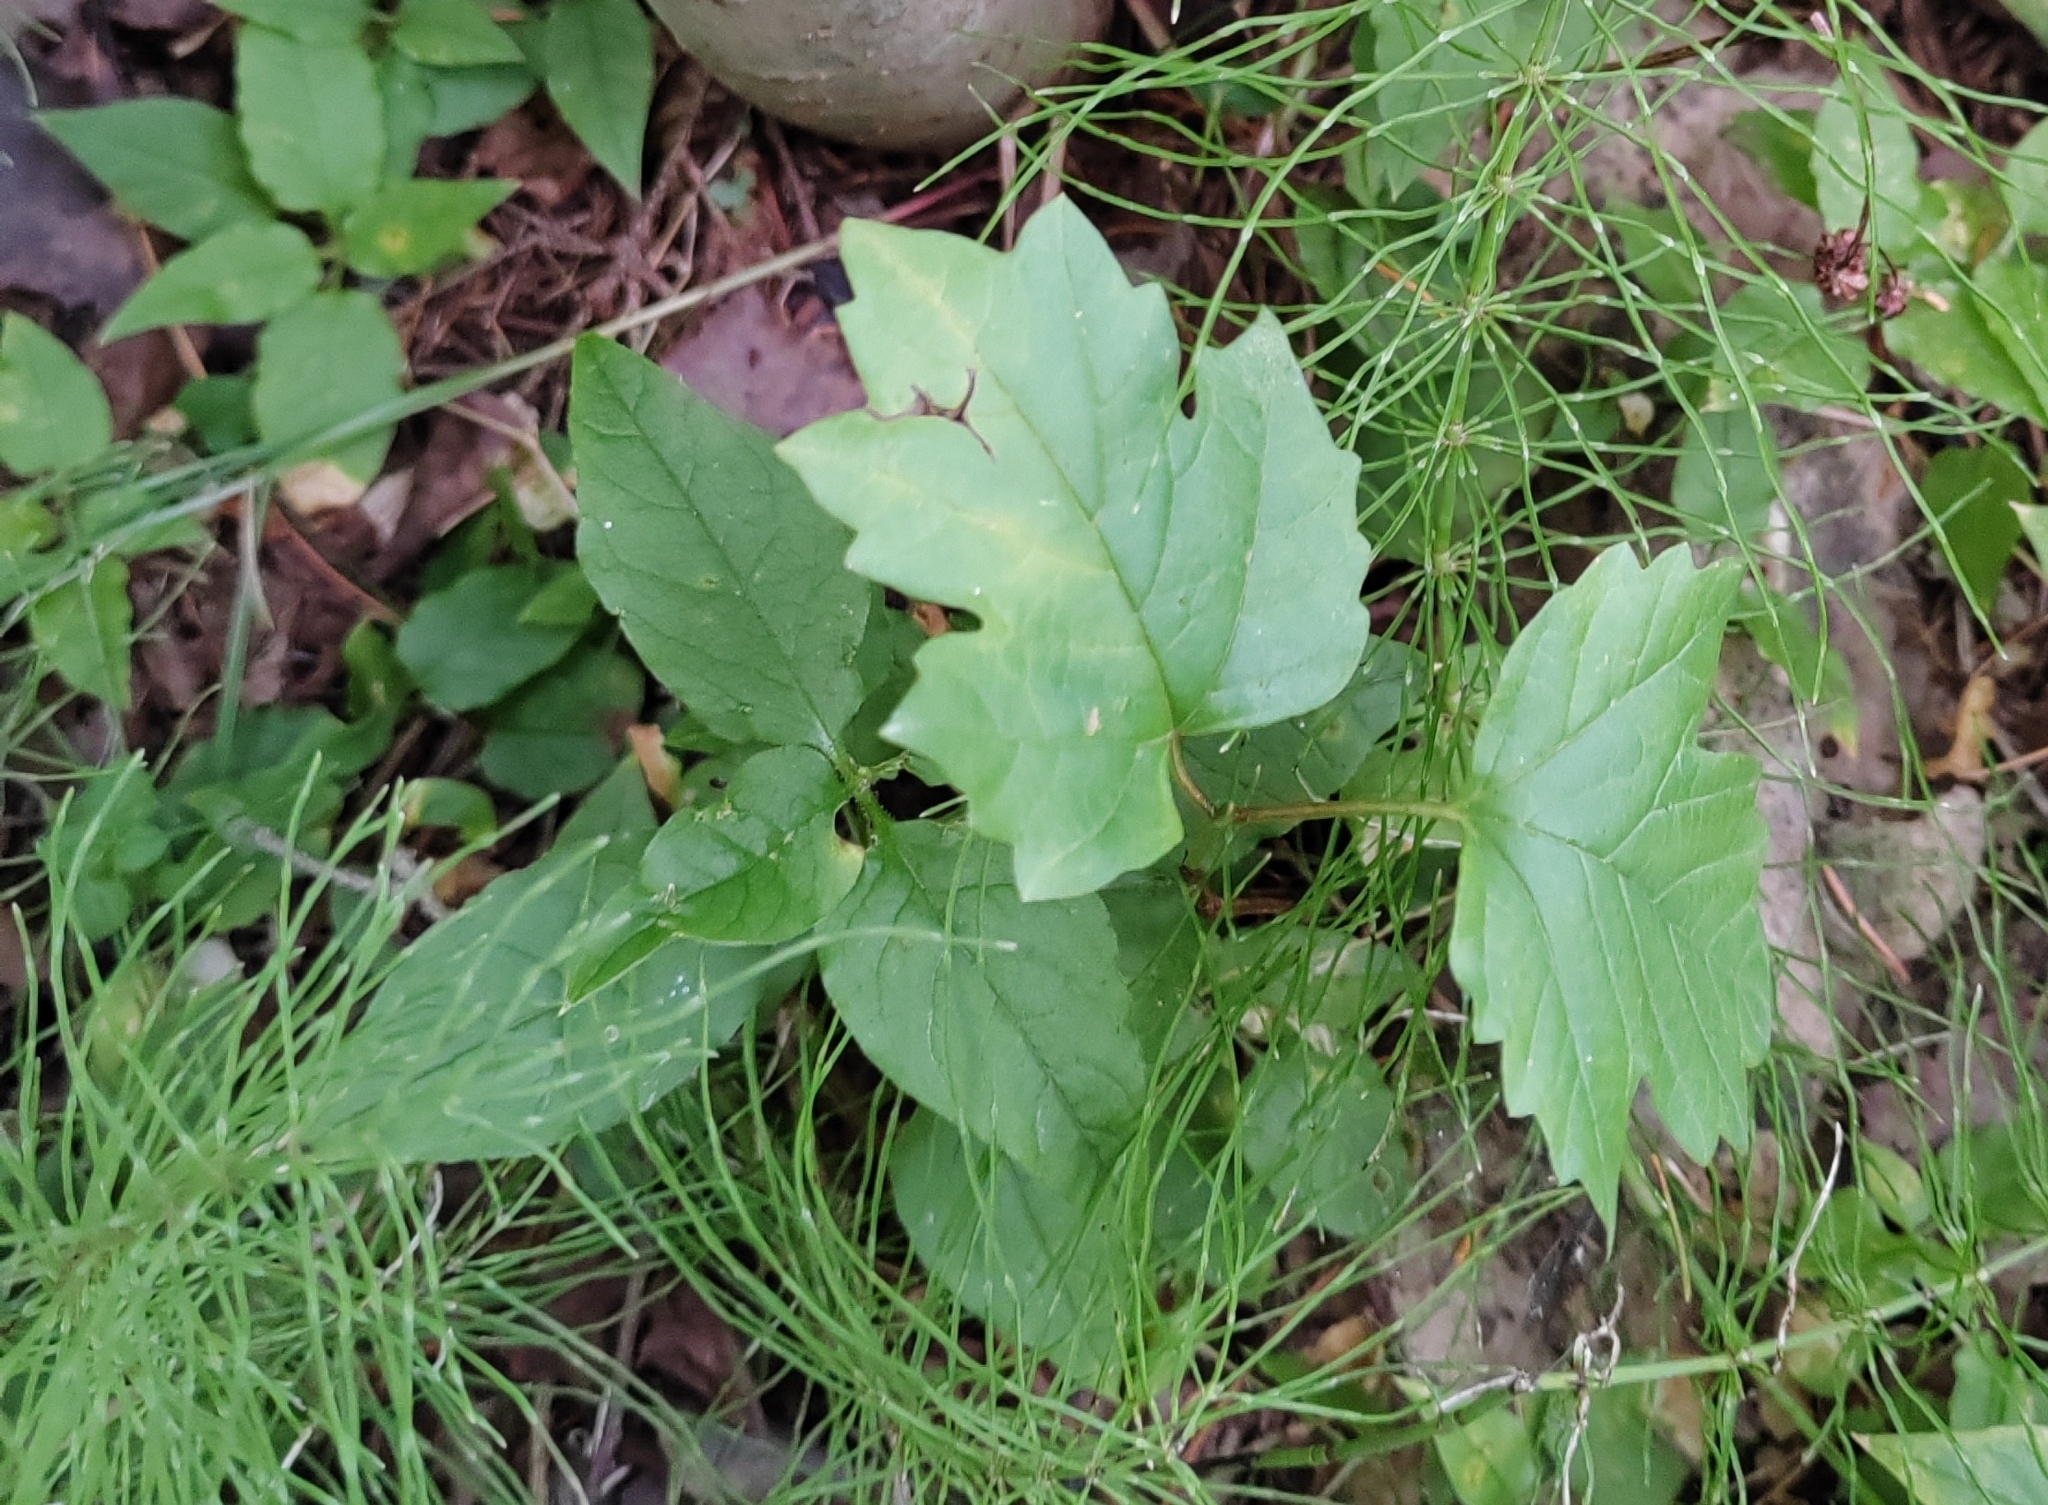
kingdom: Plantae
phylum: Tracheophyta
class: Magnoliopsida
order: Dipsacales
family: Viburnaceae
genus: Viburnum
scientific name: Viburnum opulus
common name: Guelder-rose
